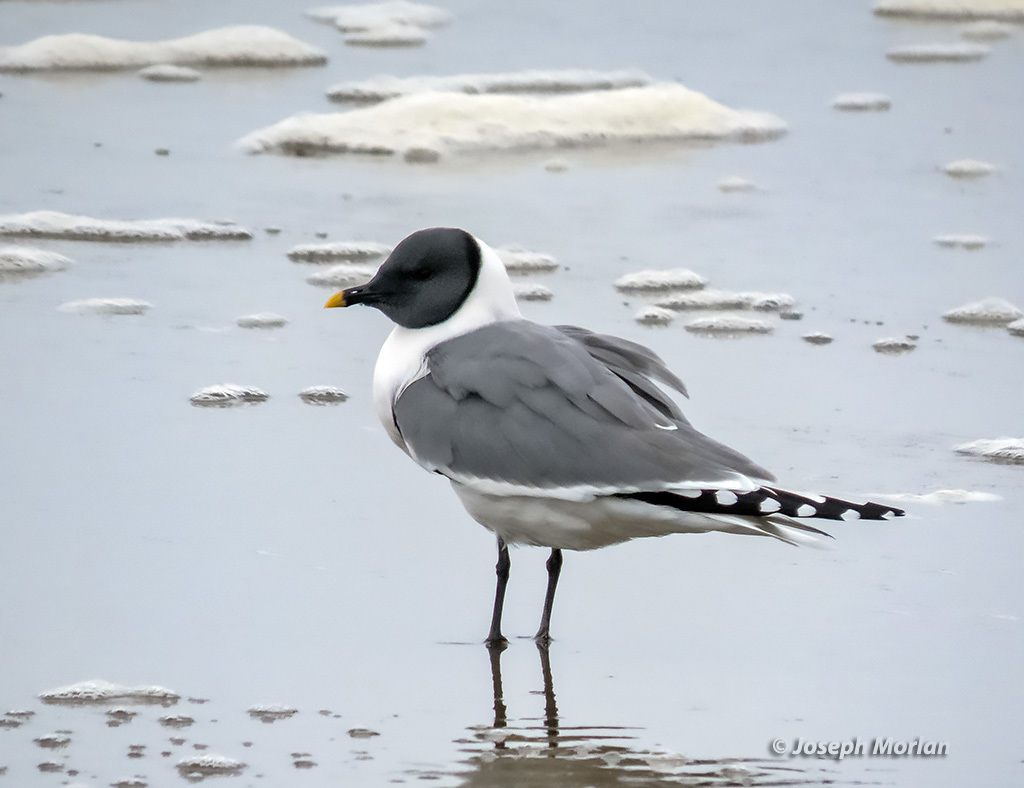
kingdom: Animalia
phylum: Chordata
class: Aves
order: Charadriiformes
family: Laridae
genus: Xema
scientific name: Xema sabini
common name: Sabine's gull
